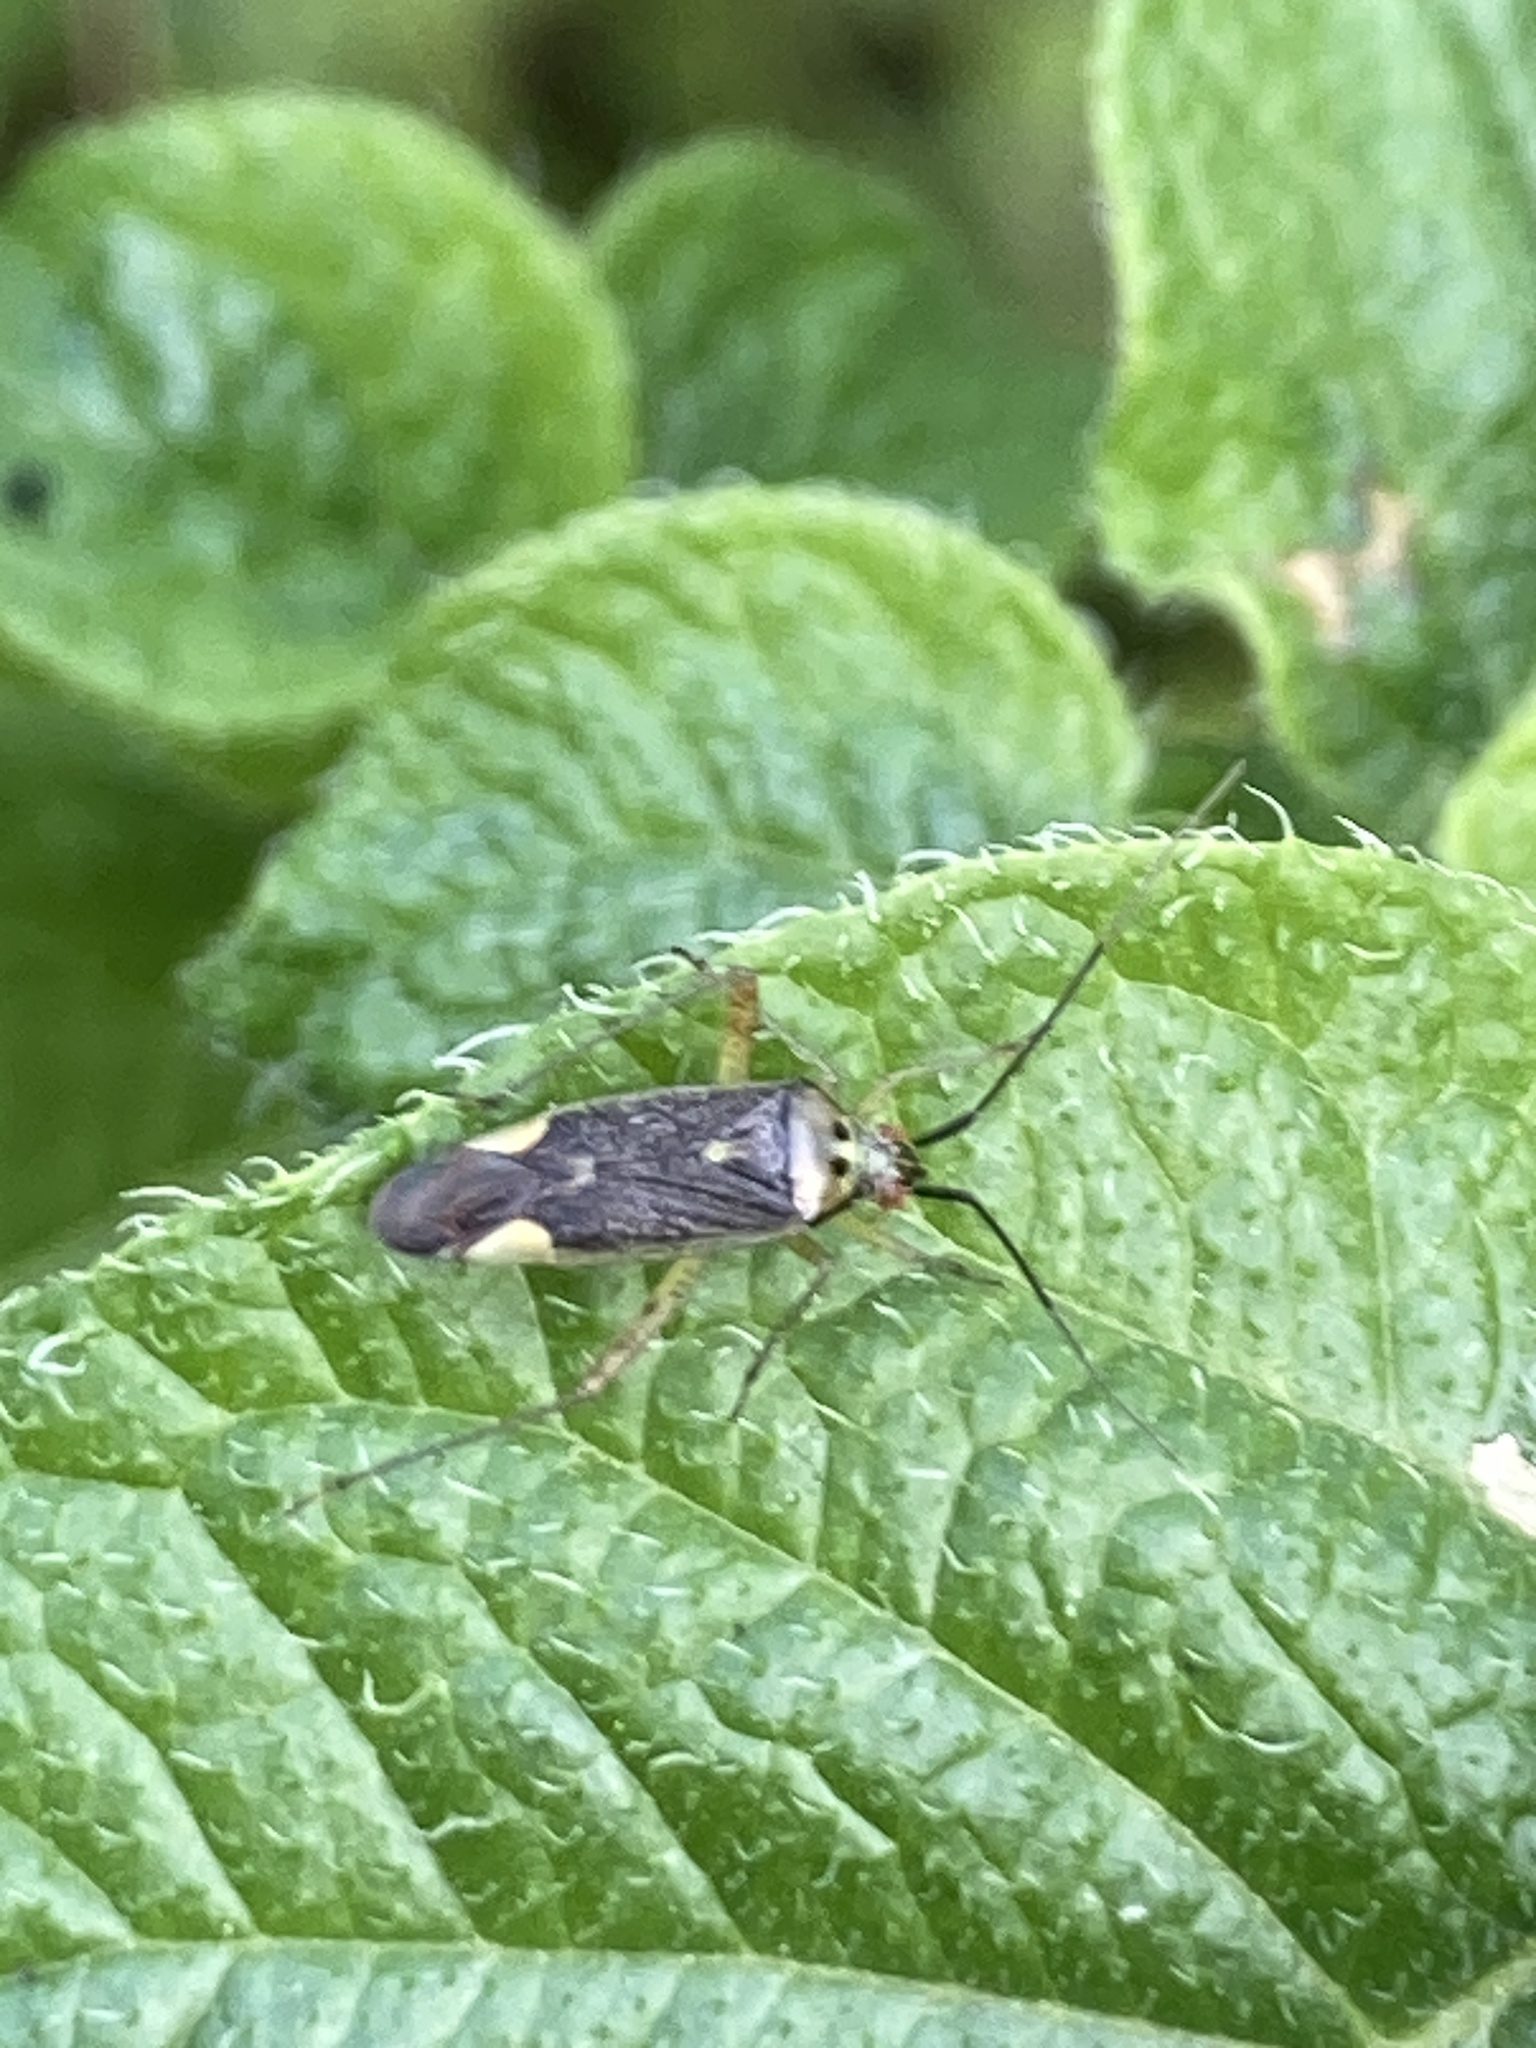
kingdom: Animalia
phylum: Arthropoda
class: Insecta
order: Hemiptera
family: Miridae
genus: Closterotomus
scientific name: Closterotomus trivialis
